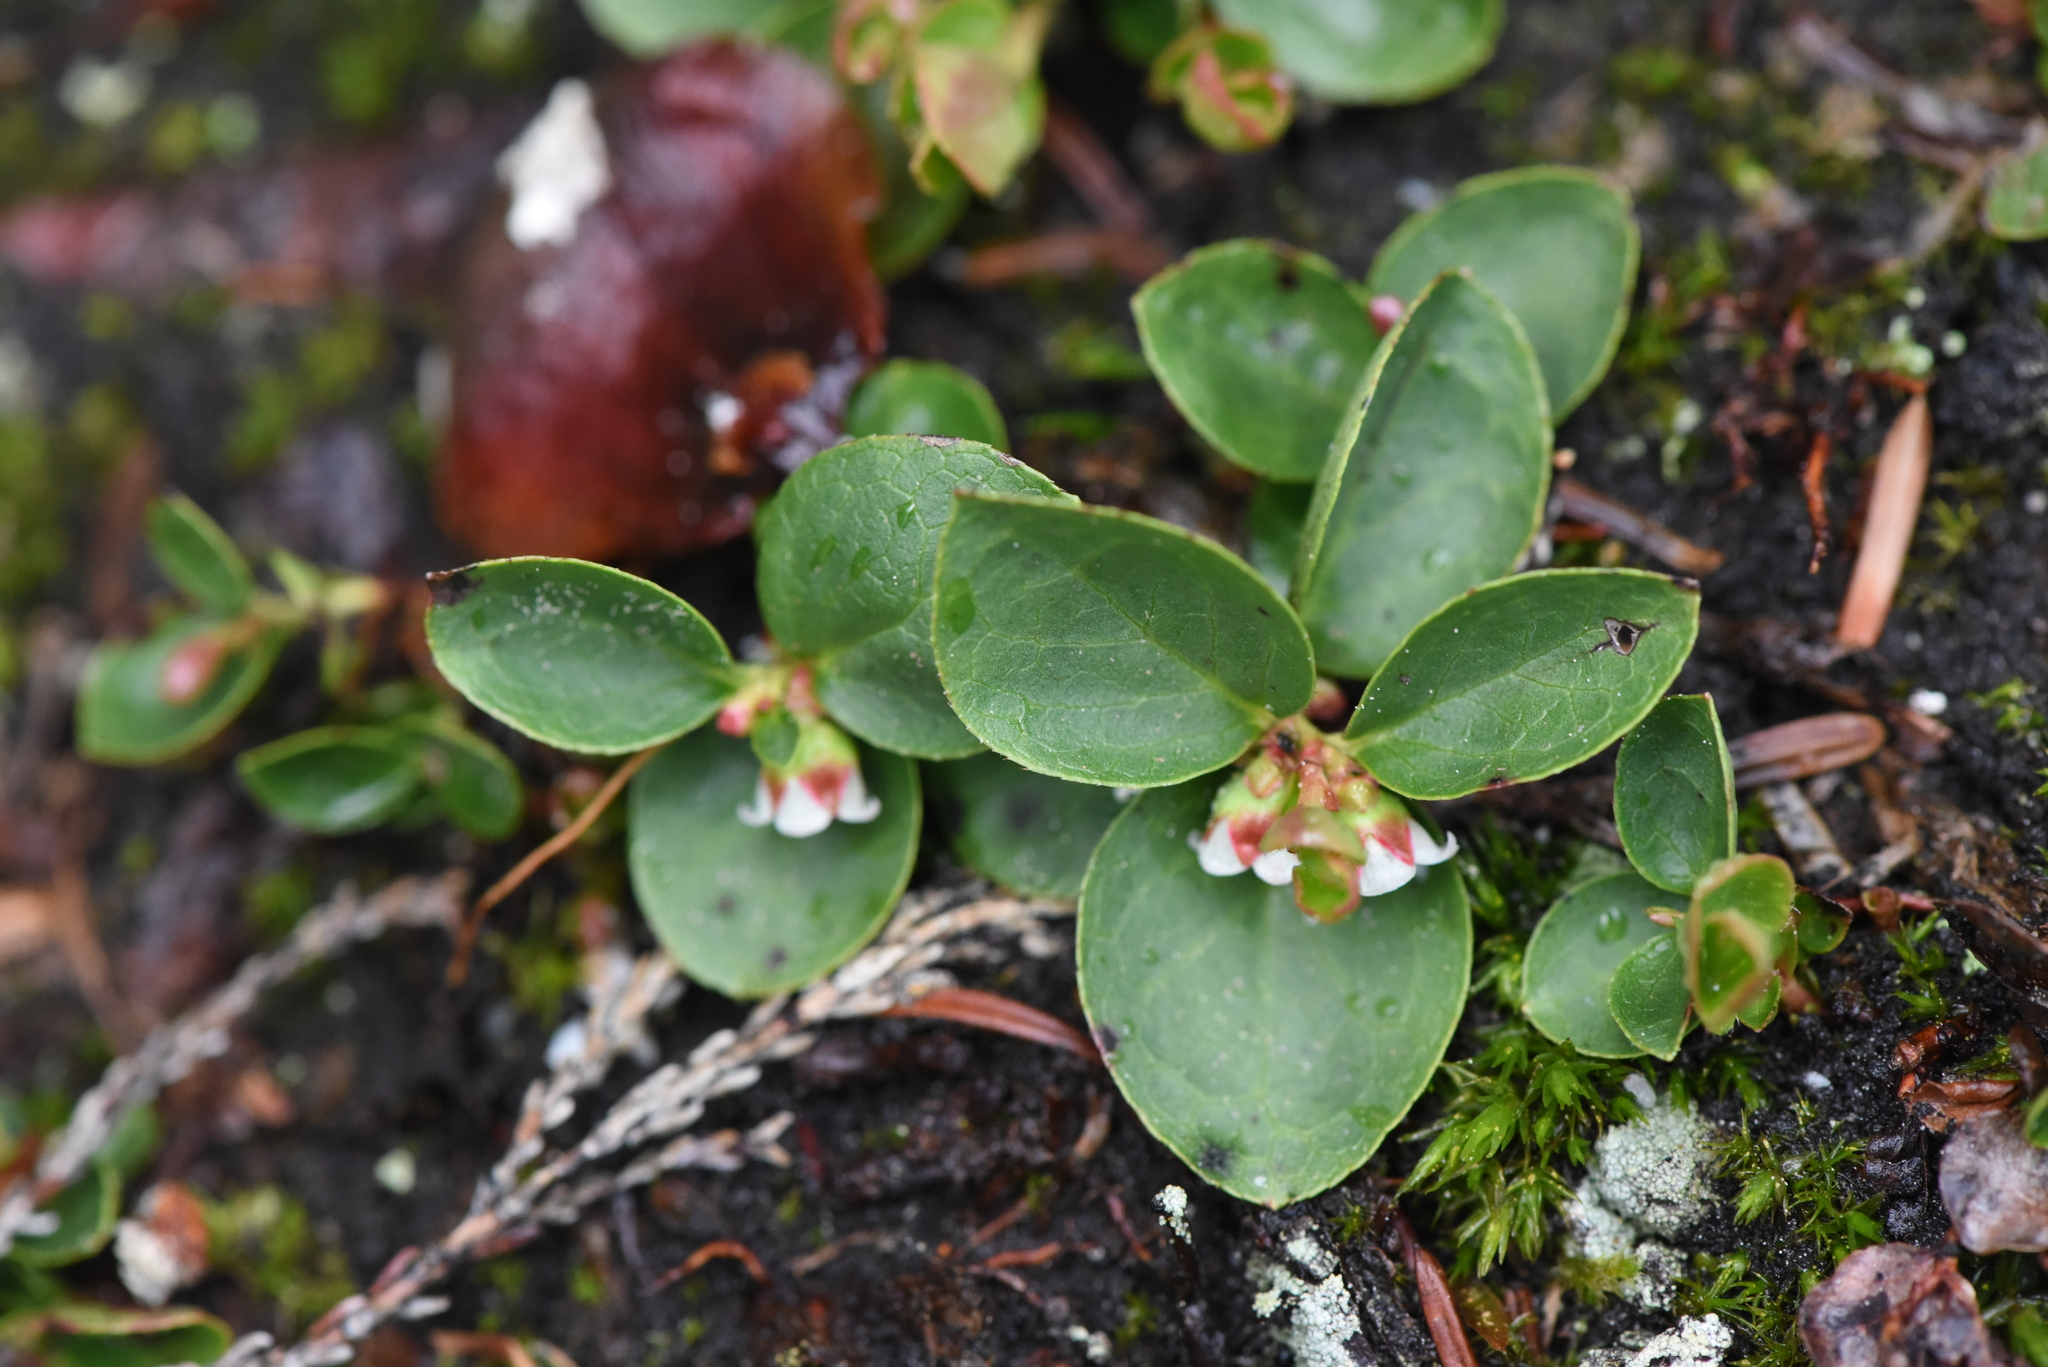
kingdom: Plantae
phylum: Tracheophyta
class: Magnoliopsida
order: Ericales
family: Ericaceae
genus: Gaultheria
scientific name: Gaultheria humifusa
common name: Alpine wintergreen
